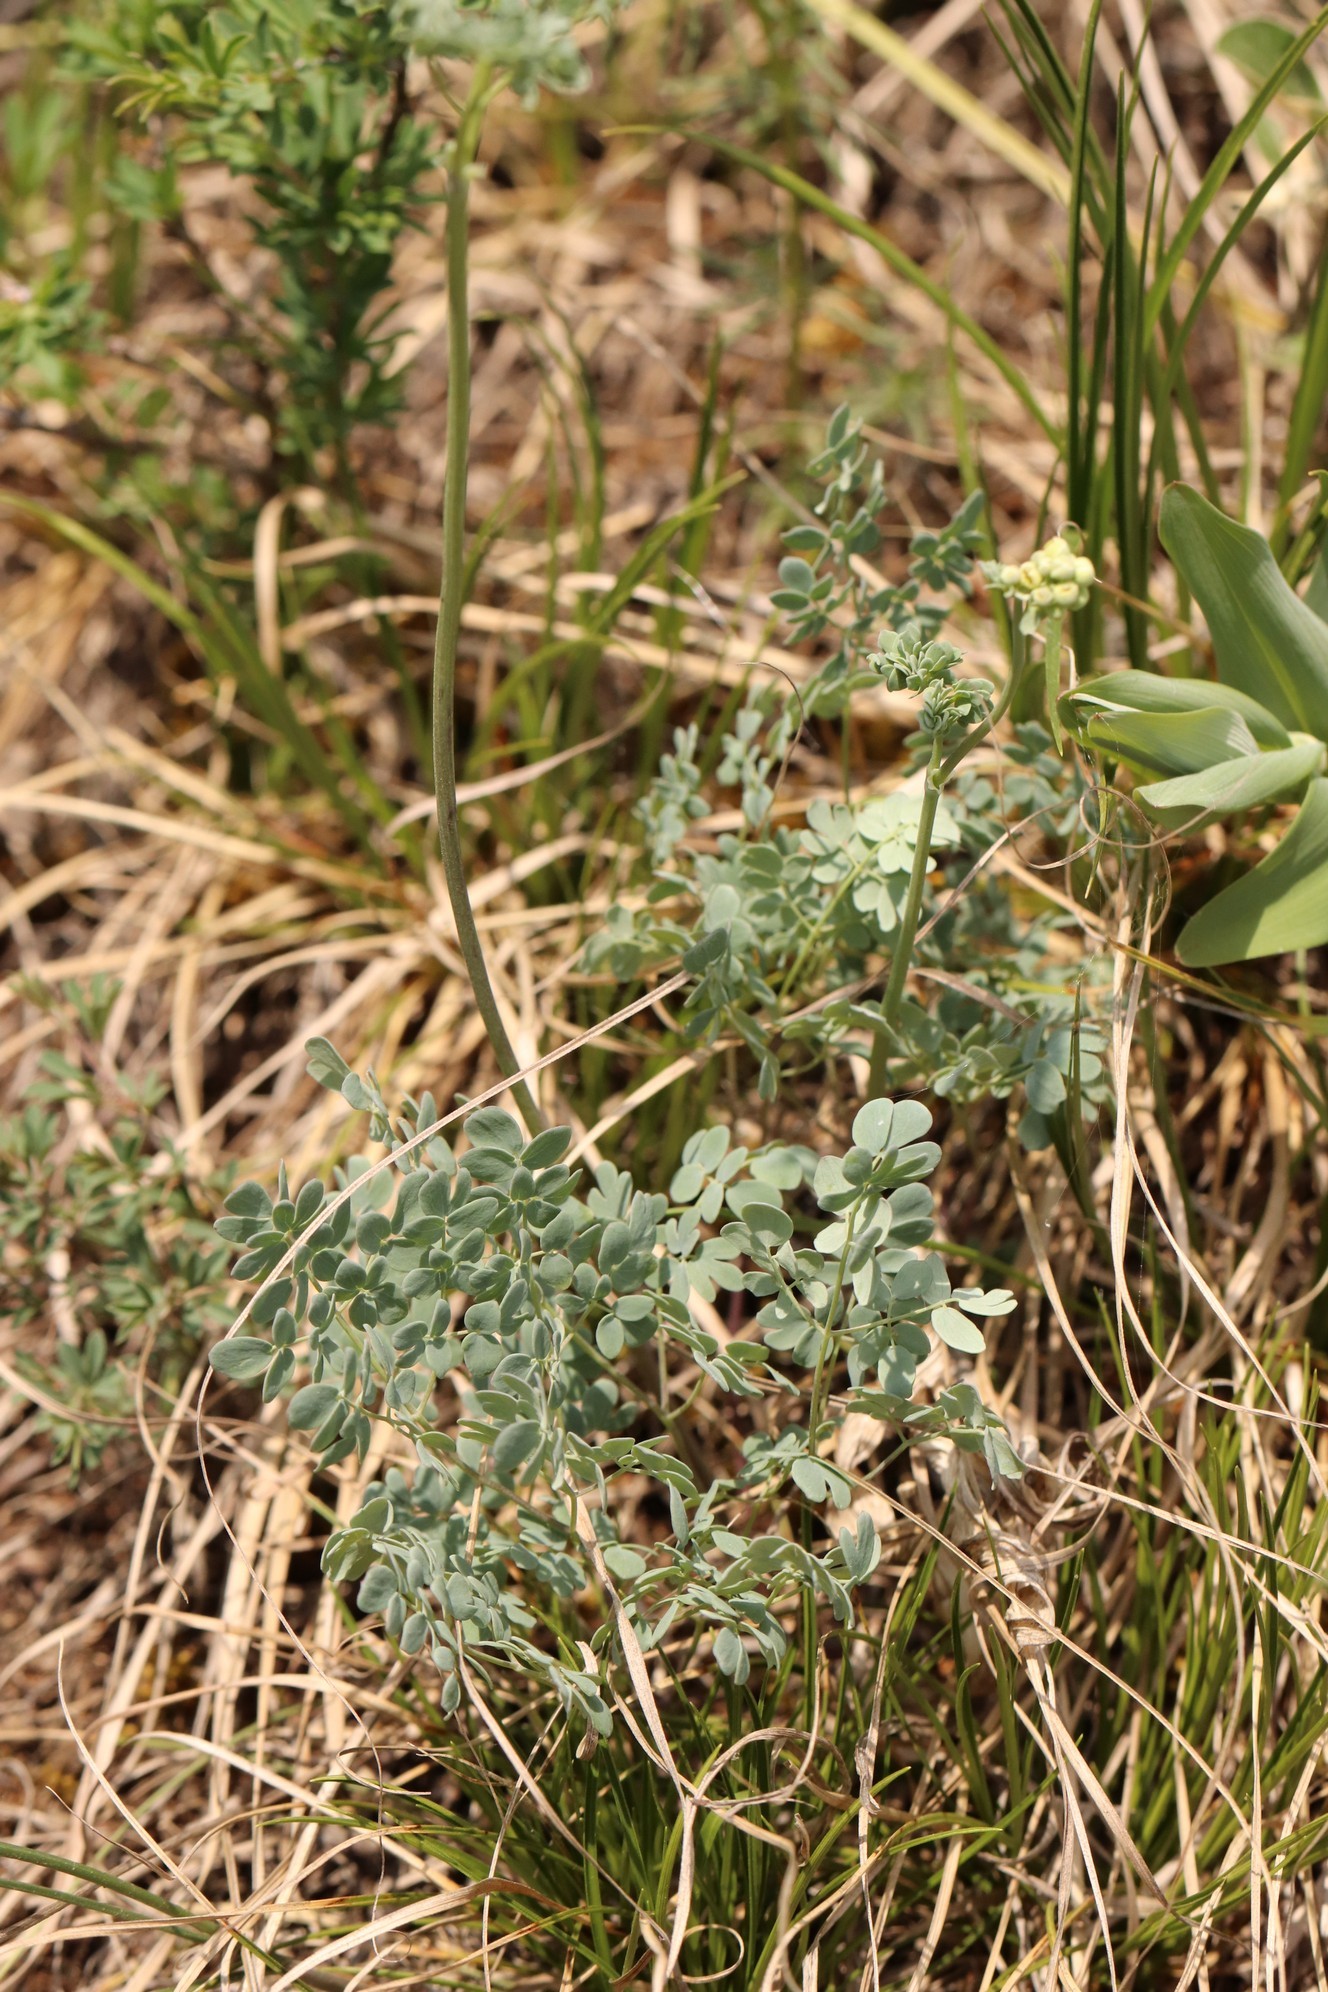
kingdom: Plantae
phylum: Tracheophyta
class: Magnoliopsida
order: Ranunculales
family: Ranunculaceae
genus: Thalictrum
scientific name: Thalictrum petaloideum
